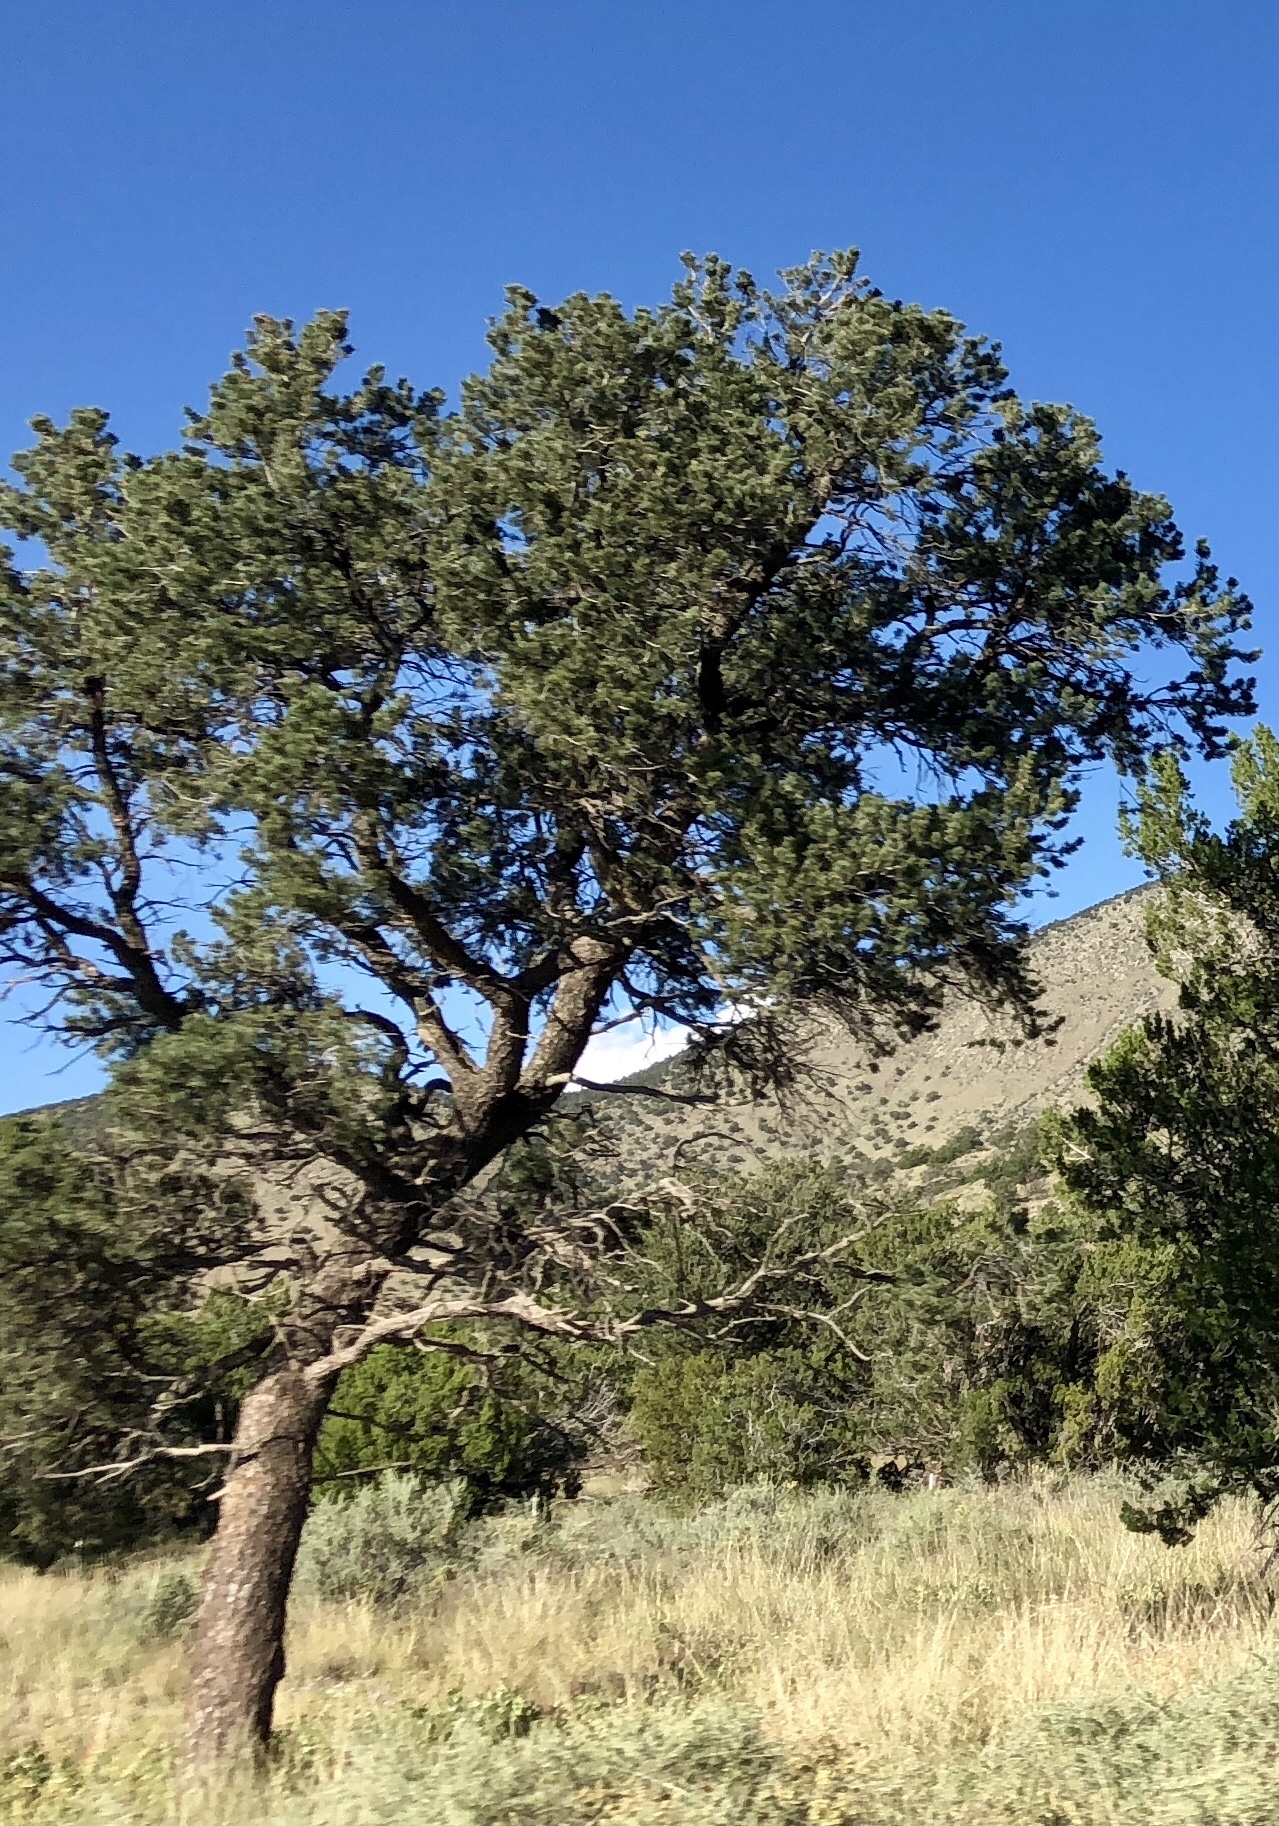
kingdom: Plantae
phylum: Tracheophyta
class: Pinopsida
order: Pinales
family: Pinaceae
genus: Pinus
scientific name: Pinus edulis
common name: Colorado pinyon
